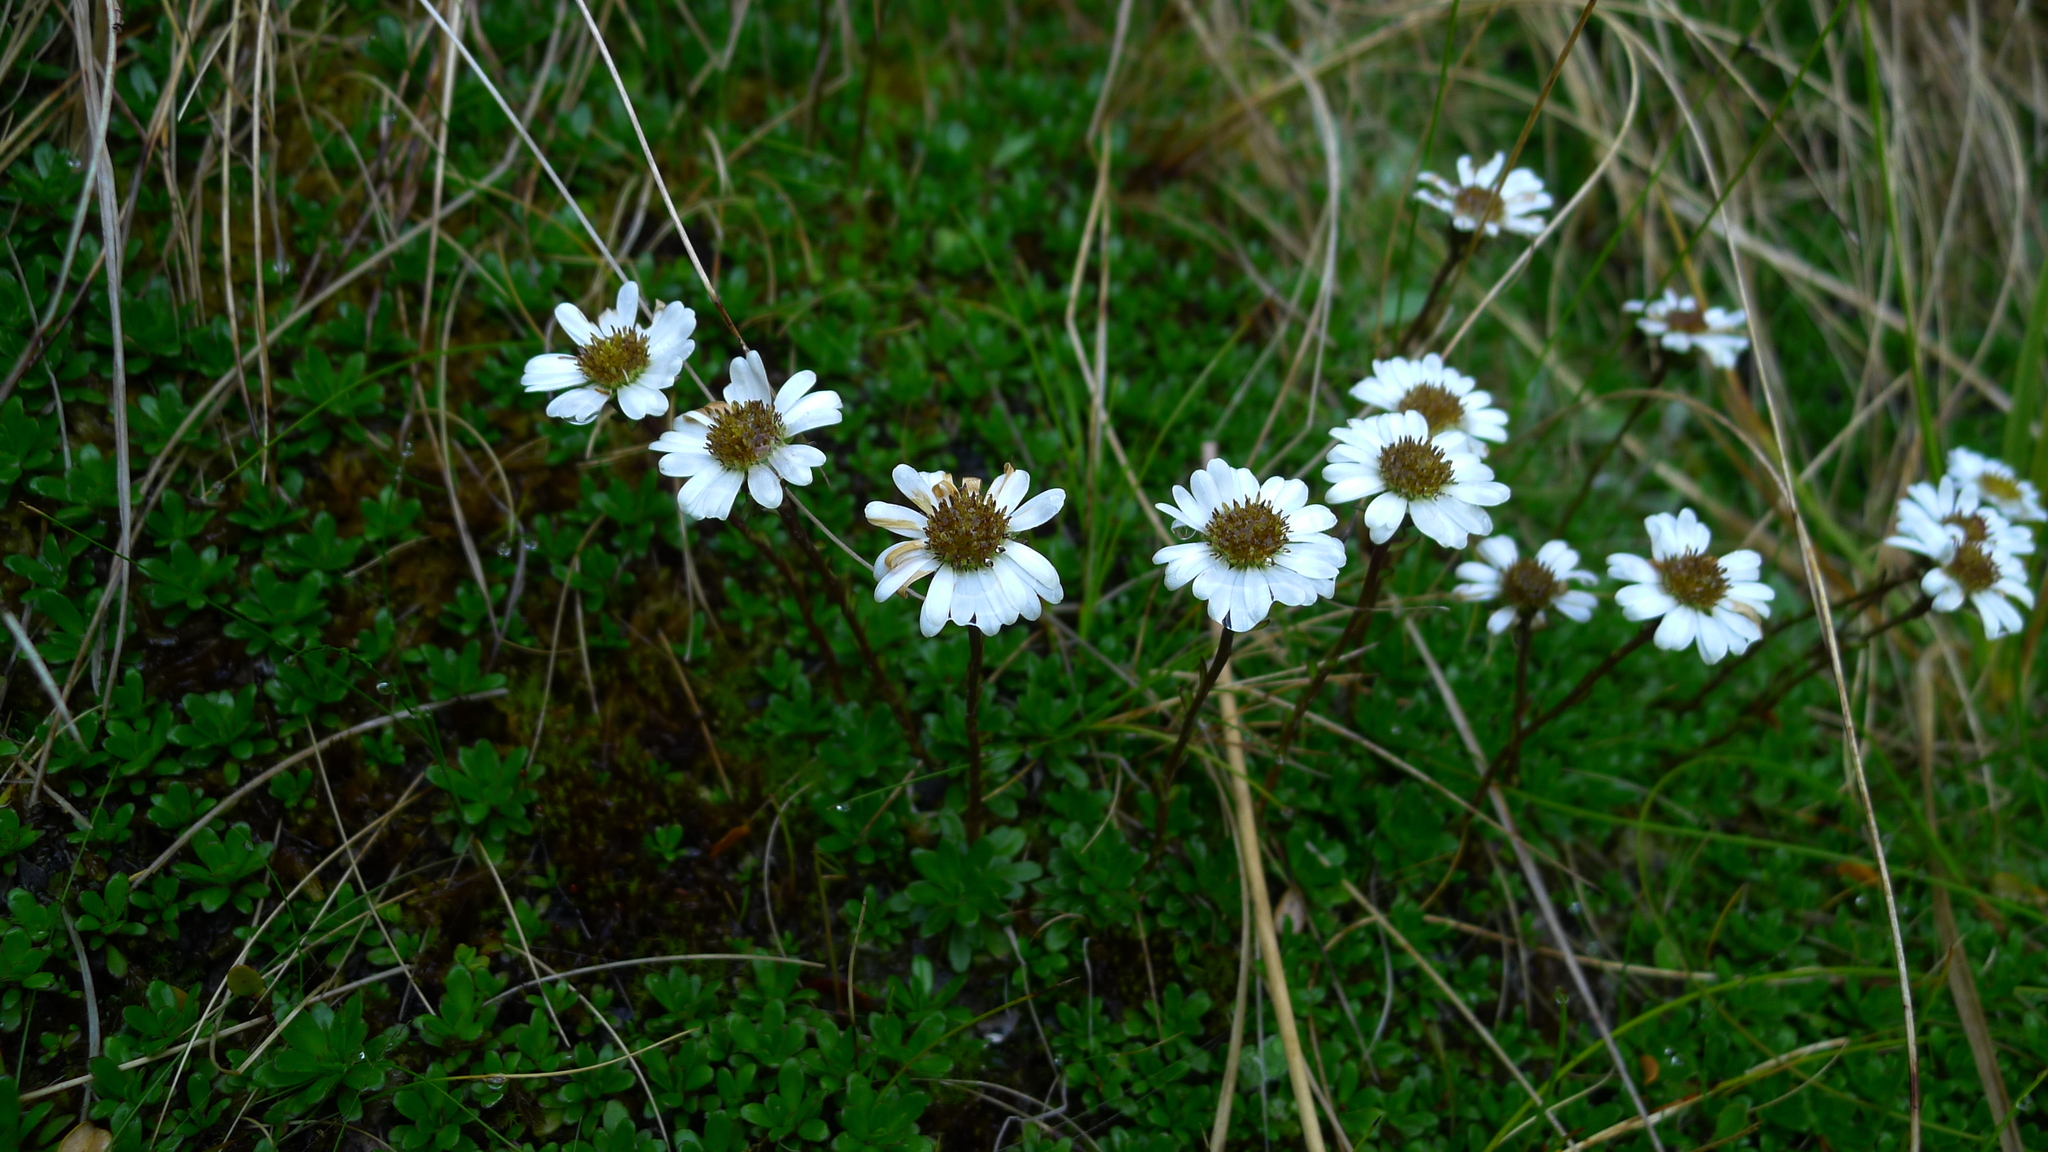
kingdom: Plantae
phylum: Tracheophyta
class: Magnoliopsida
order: Asterales
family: Asteraceae
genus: Celmisia
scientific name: Celmisia bellidioides
